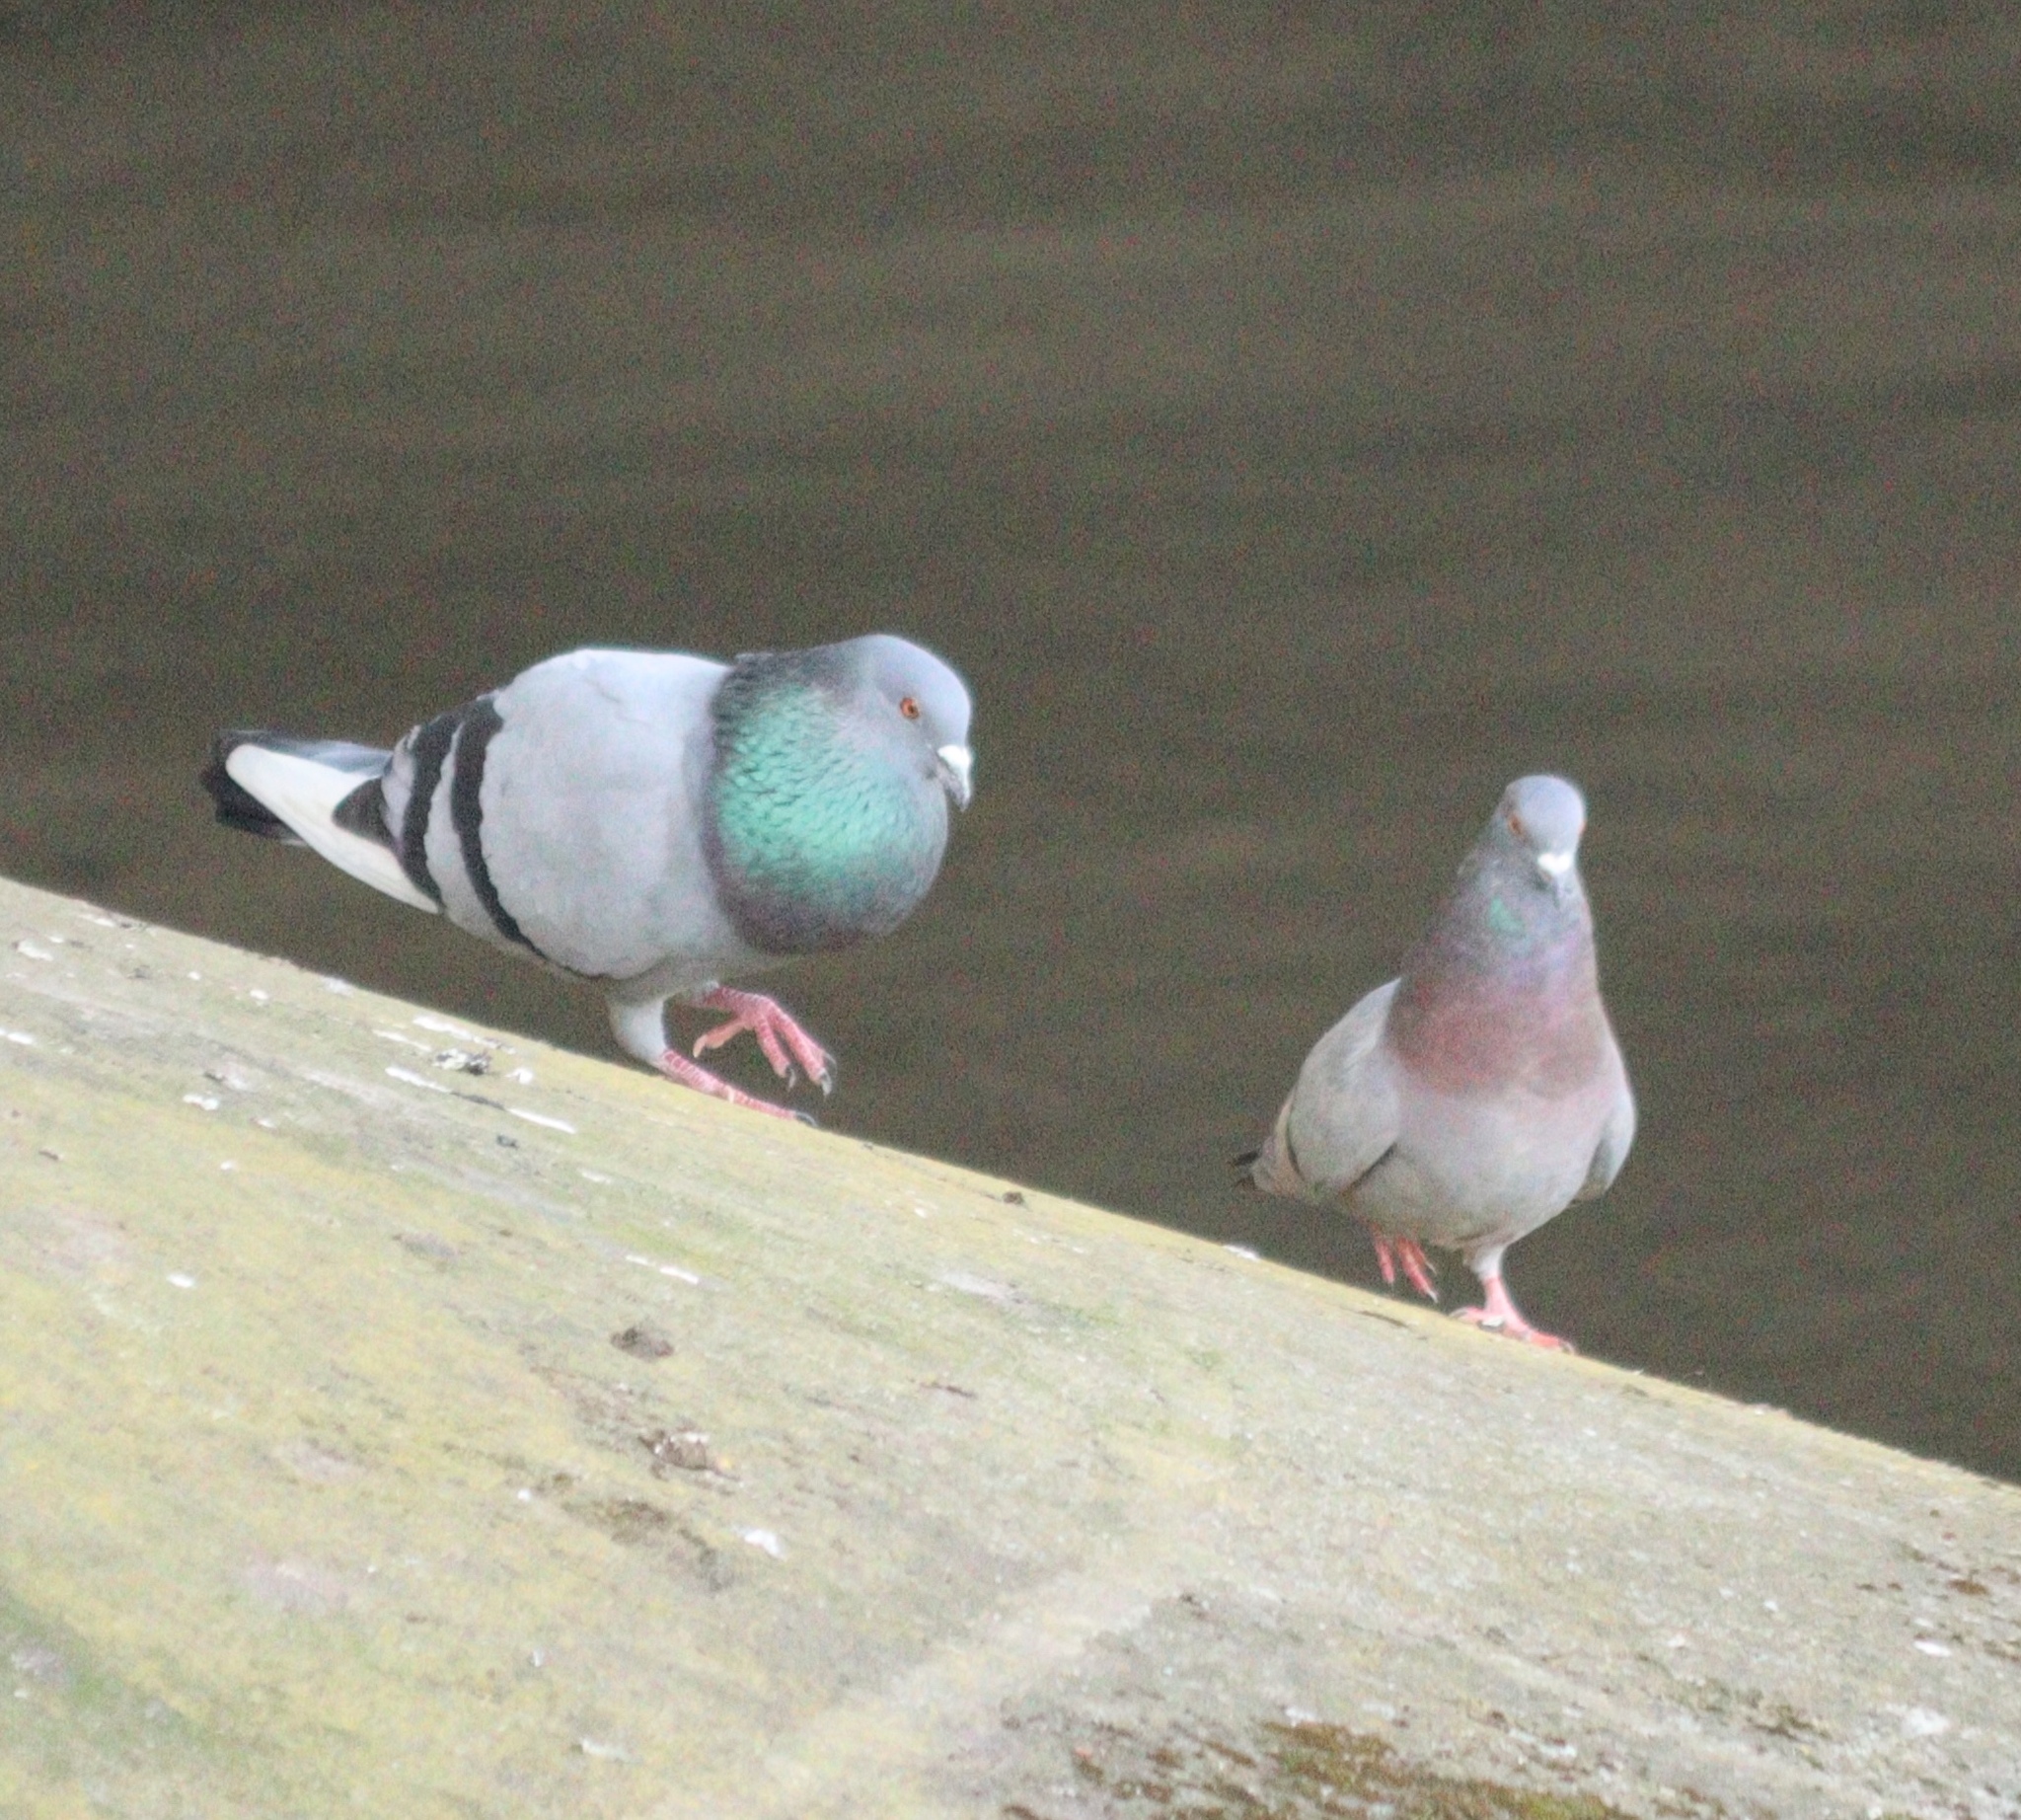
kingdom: Animalia
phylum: Chordata
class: Aves
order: Columbiformes
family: Columbidae
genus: Columba
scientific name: Columba livia
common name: Rock pigeon
